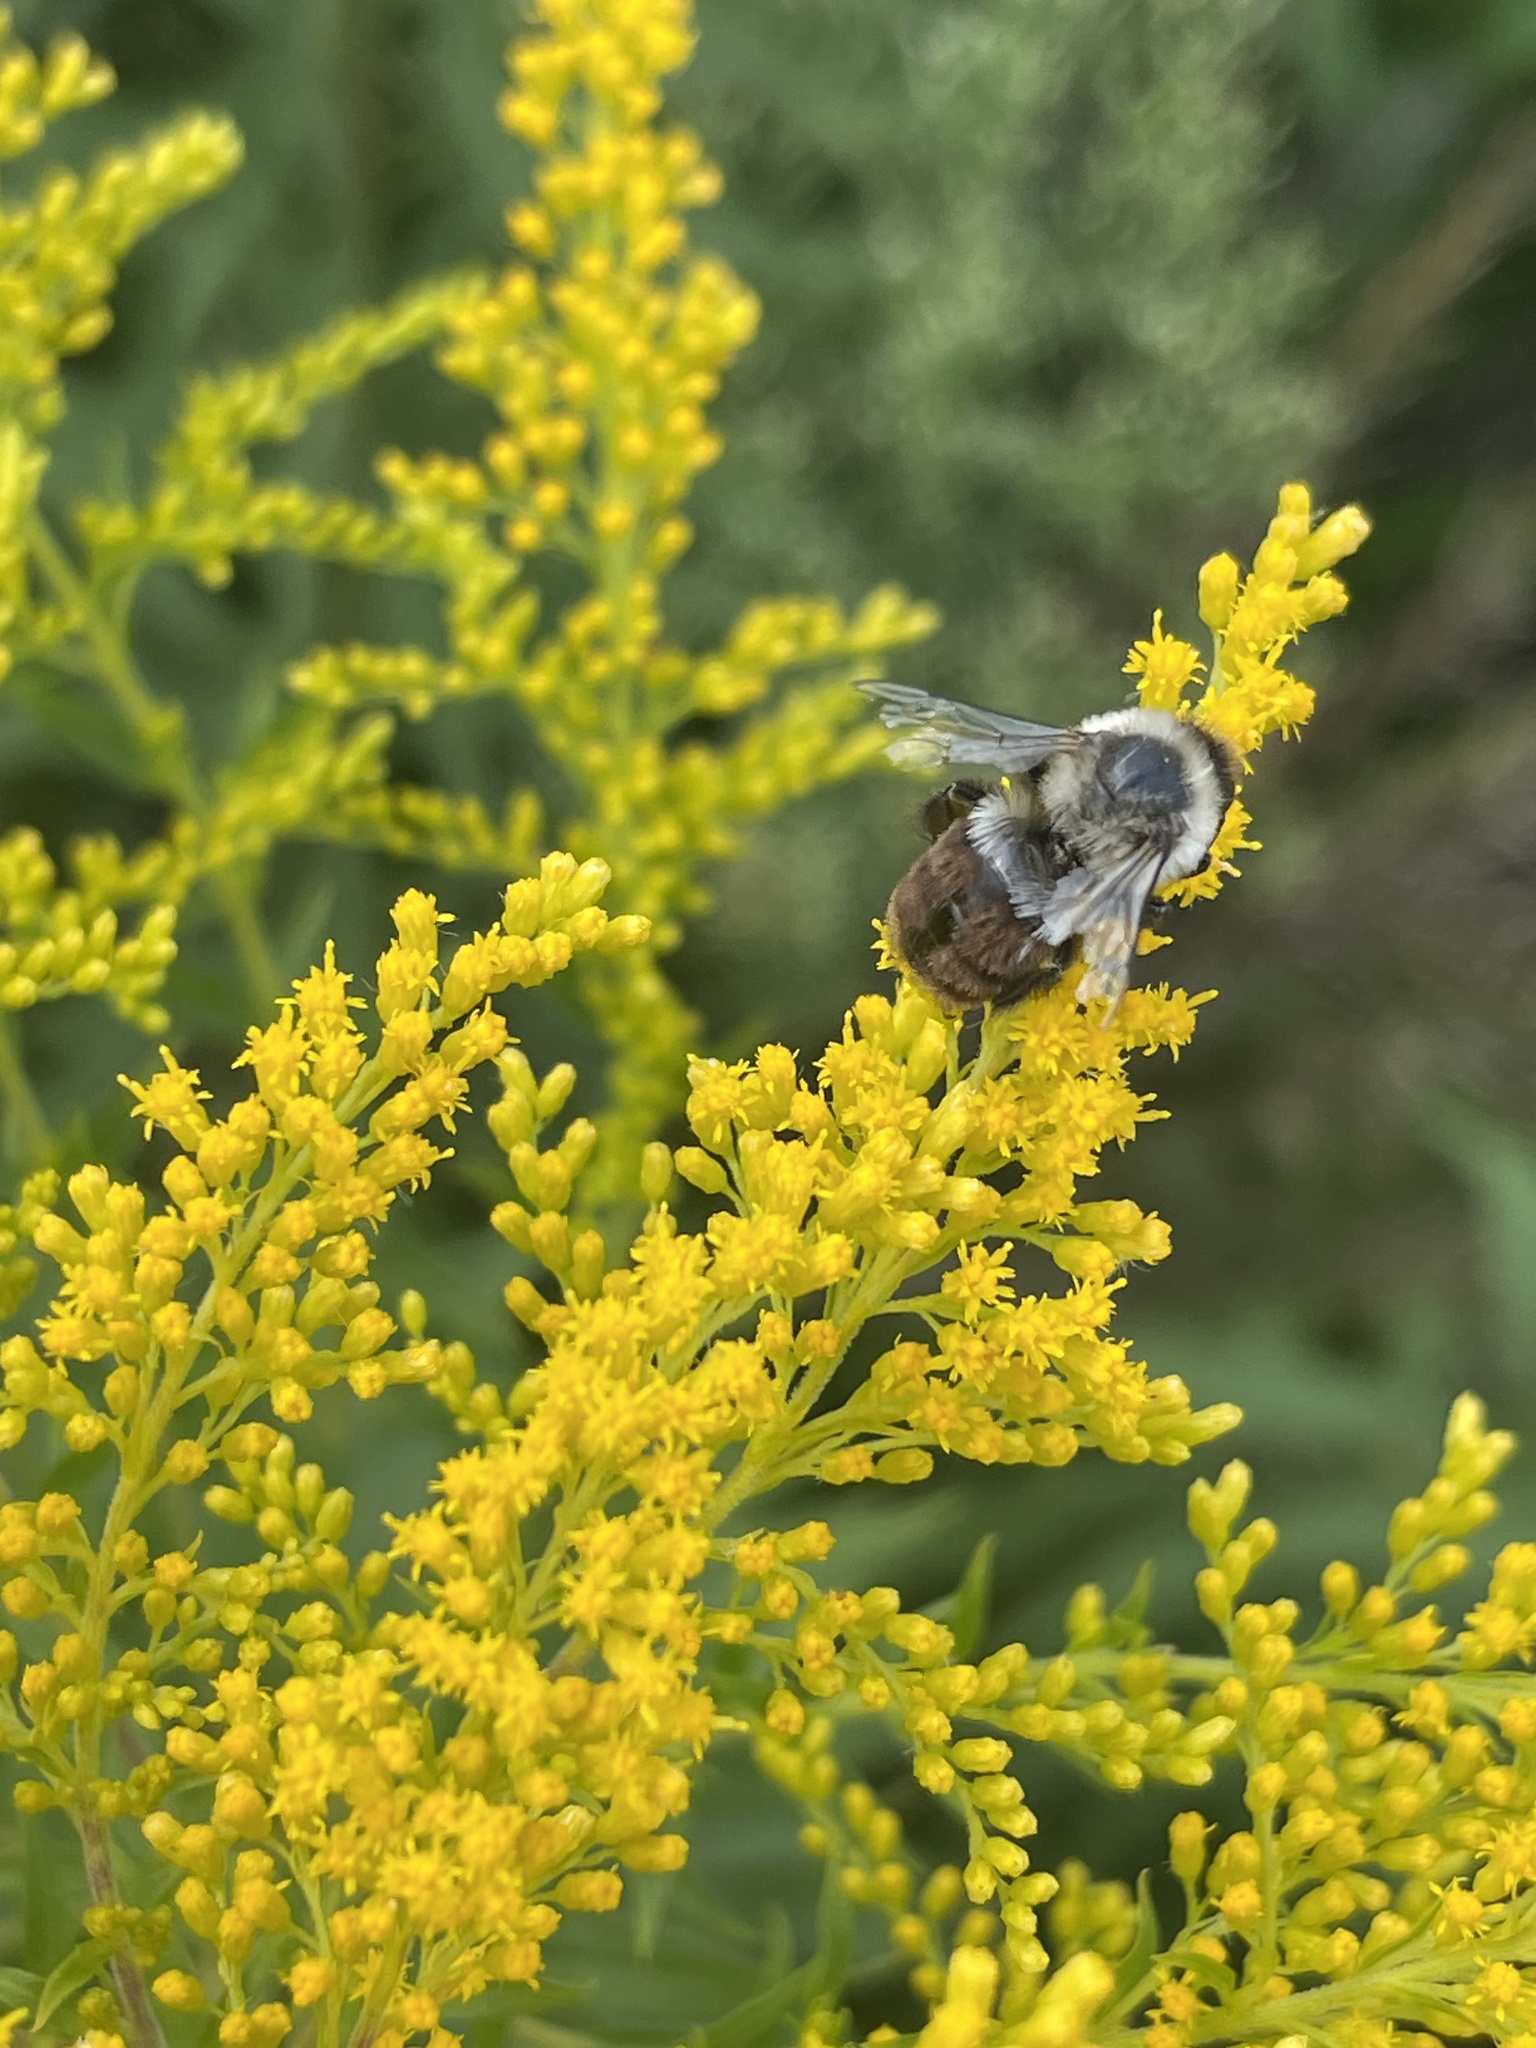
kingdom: Animalia
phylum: Arthropoda
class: Insecta
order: Hymenoptera
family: Apidae
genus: Bombus
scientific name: Bombus impatiens
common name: Common eastern bumble bee
